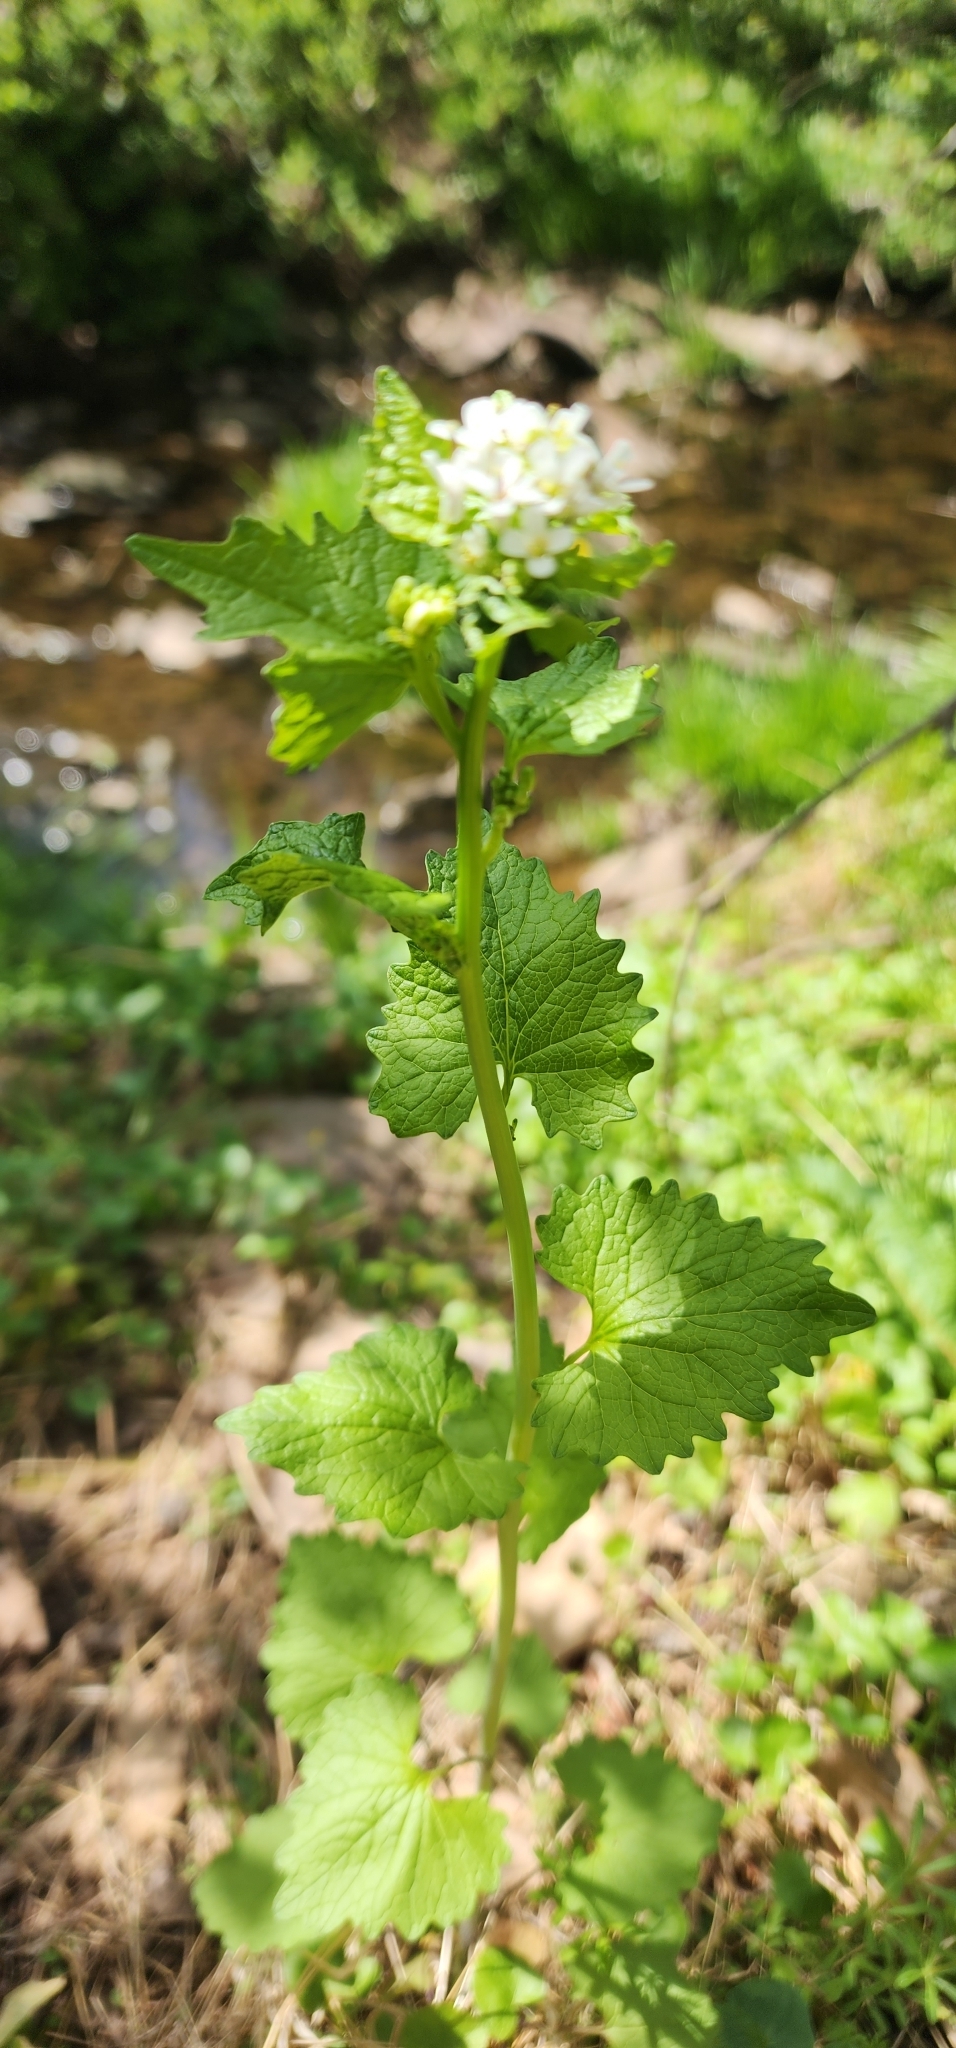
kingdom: Plantae
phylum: Tracheophyta
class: Magnoliopsida
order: Brassicales
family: Brassicaceae
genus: Alliaria
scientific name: Alliaria petiolata
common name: Garlic mustard
